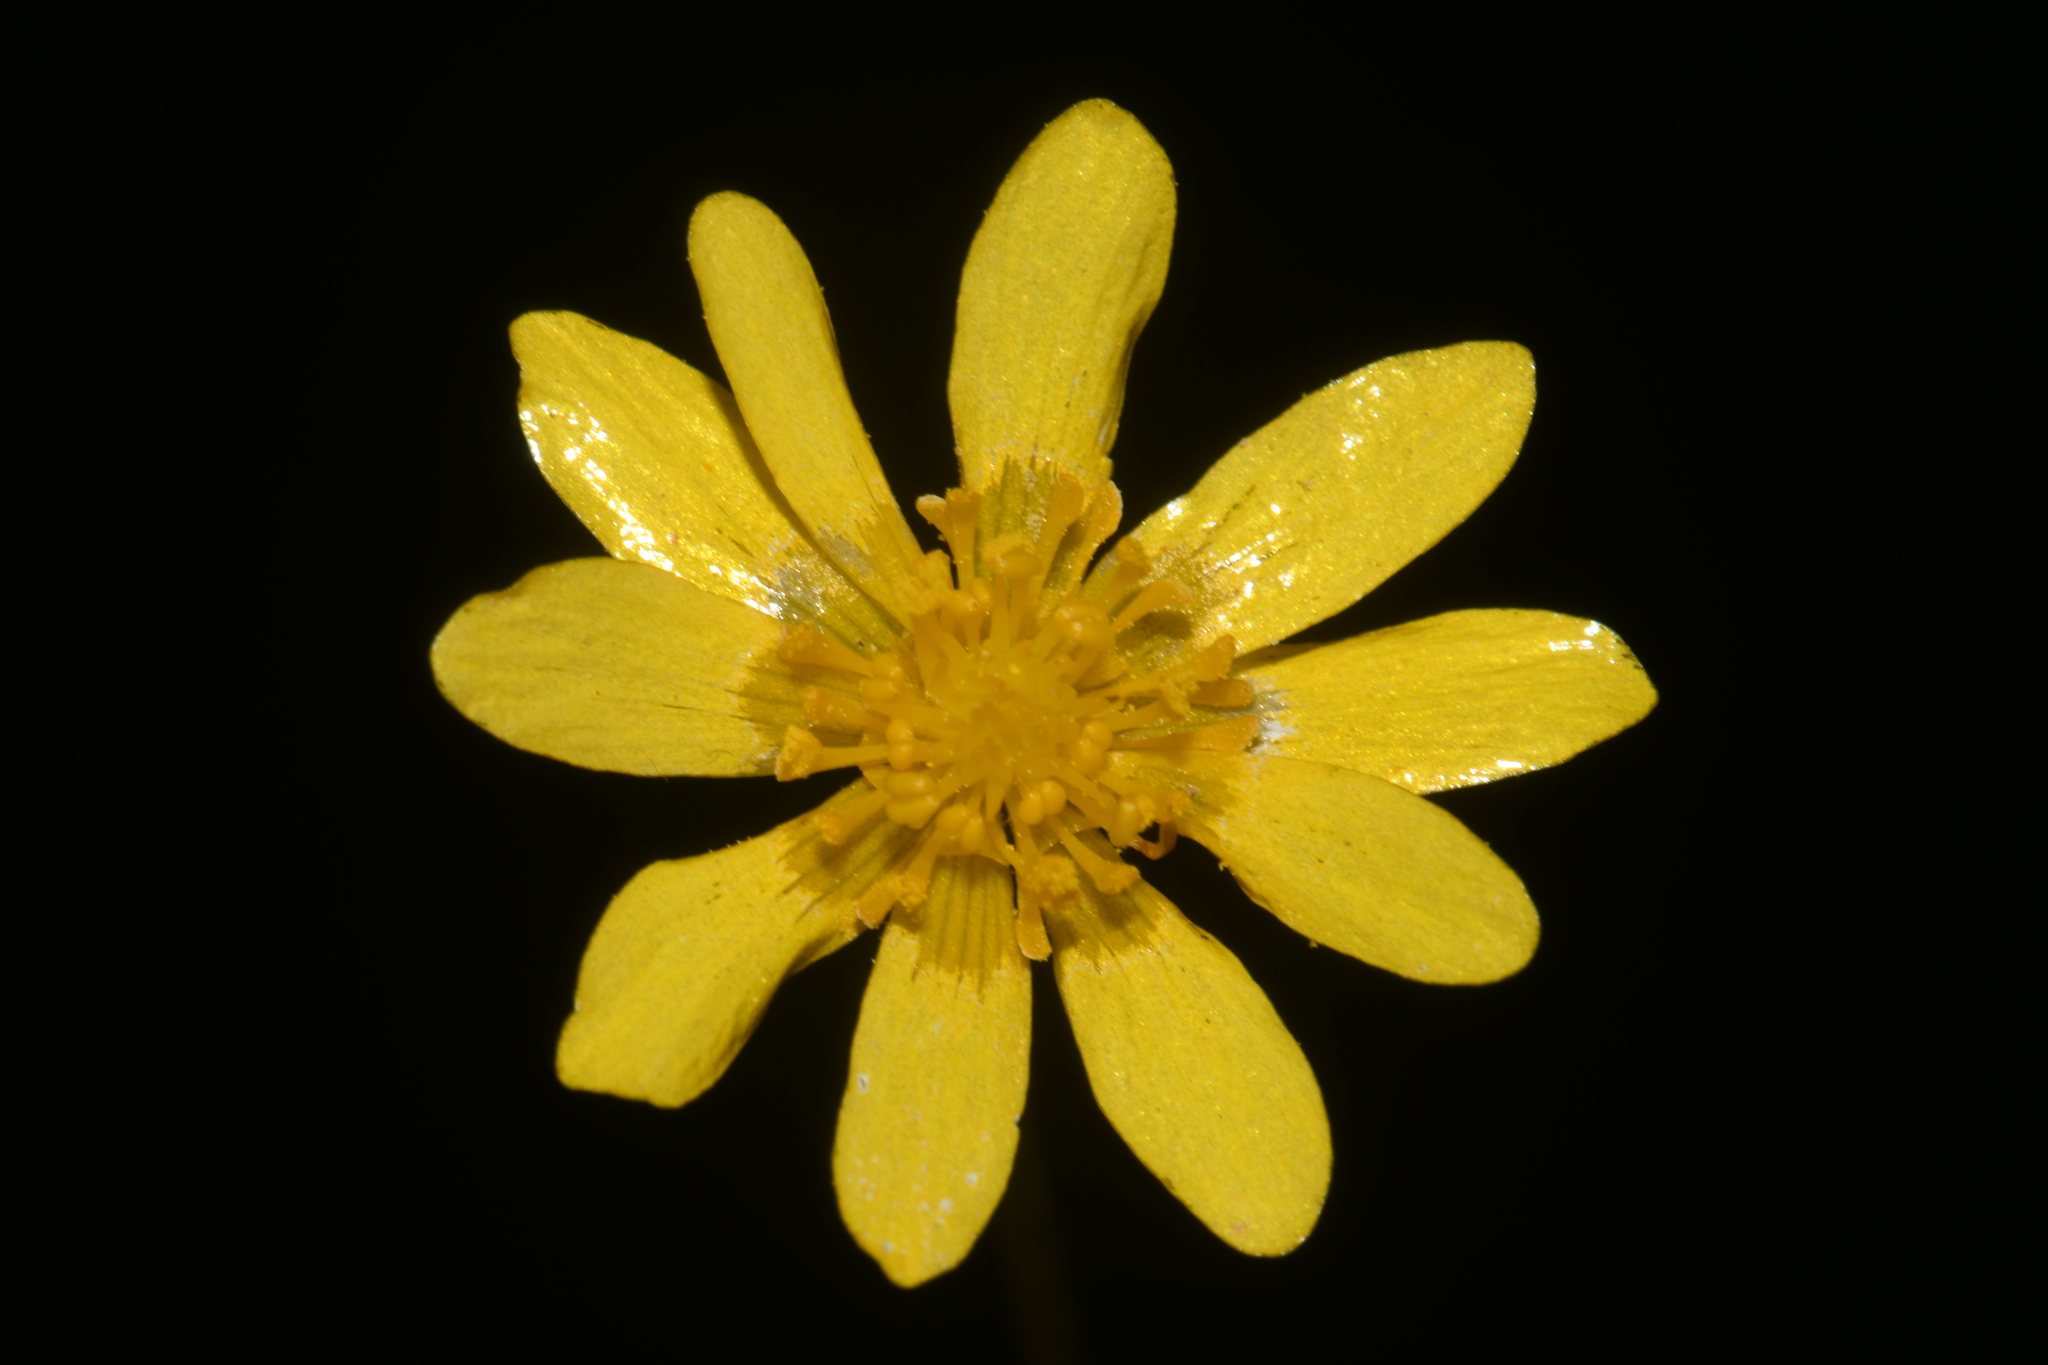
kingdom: Plantae
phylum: Tracheophyta
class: Magnoliopsida
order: Ranunculales
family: Ranunculaceae
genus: Ranunculus
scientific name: Ranunculus fascicularis
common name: Early buttercup
